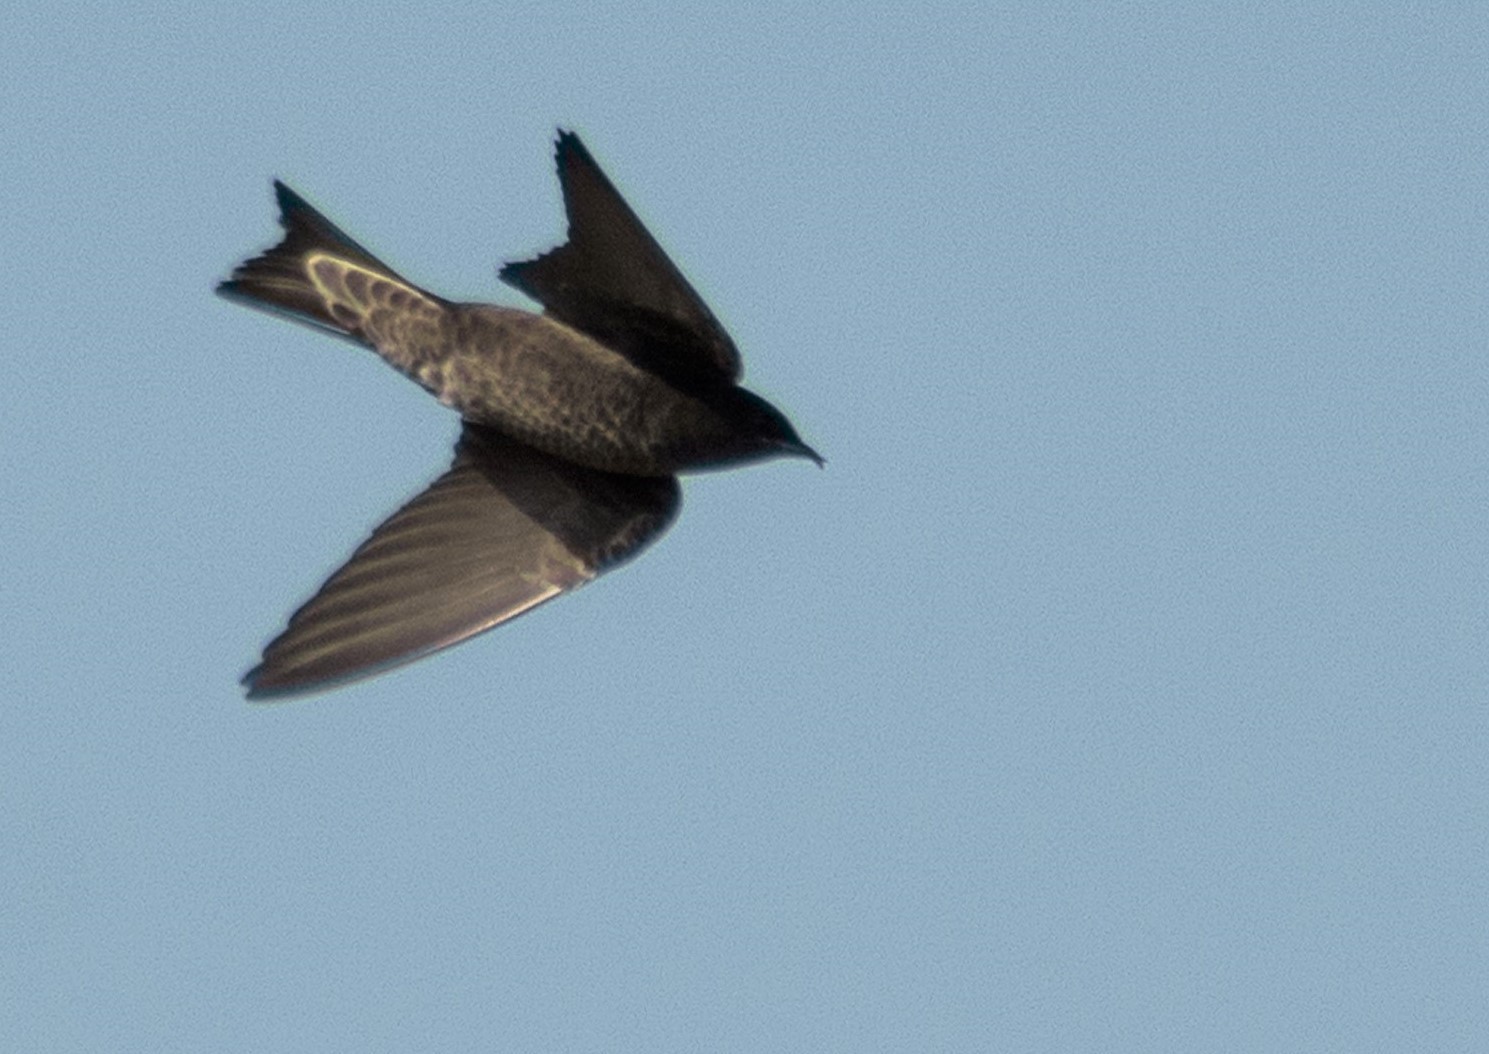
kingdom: Animalia
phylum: Chordata
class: Aves
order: Passeriformes
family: Hirundinidae
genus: Progne
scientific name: Progne elegans
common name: Southern martin
